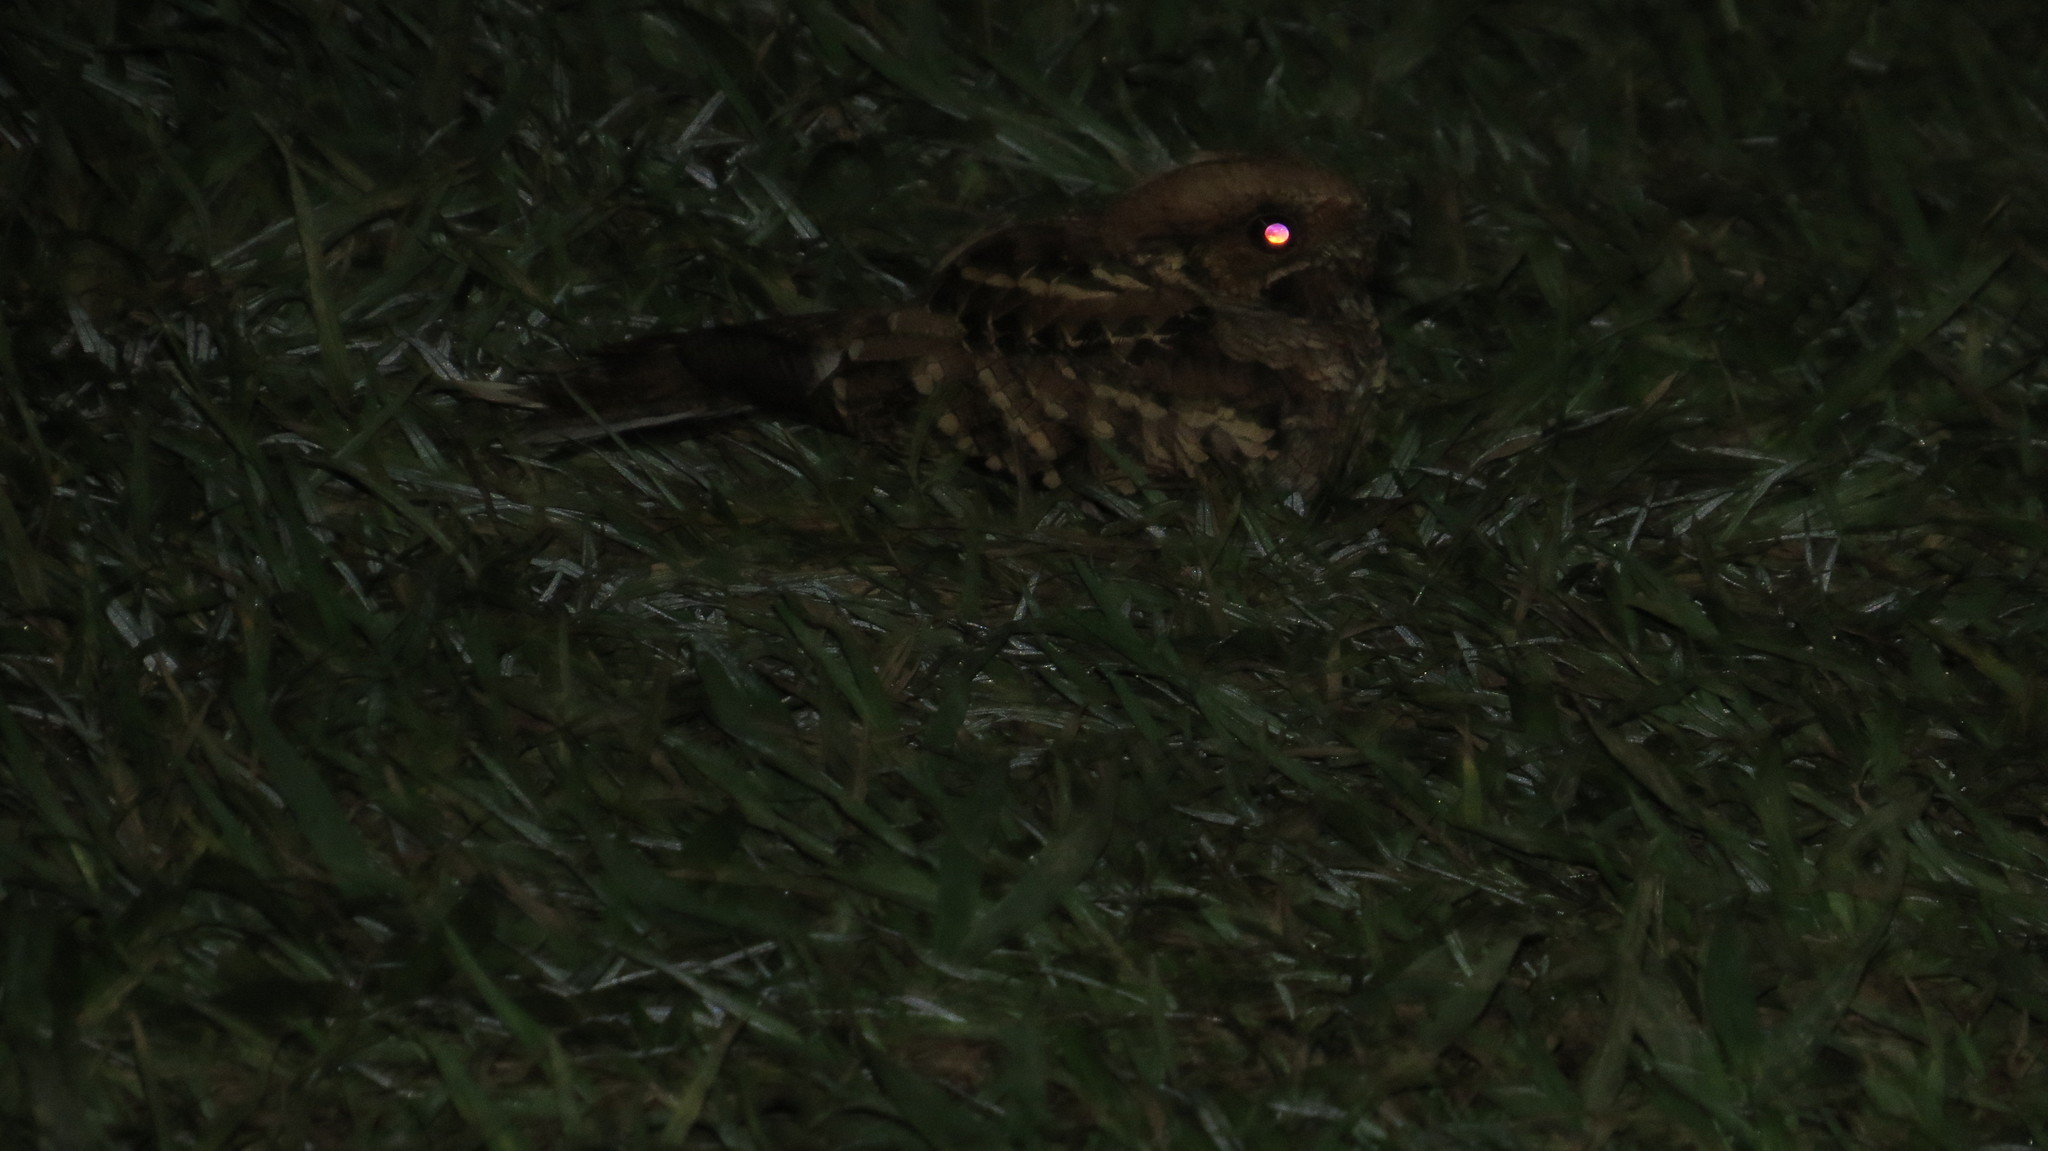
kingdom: Animalia
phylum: Chordata
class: Aves
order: Caprimulgiformes
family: Caprimulgidae
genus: Nyctidromus
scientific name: Nyctidromus albicollis
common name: Pauraque
